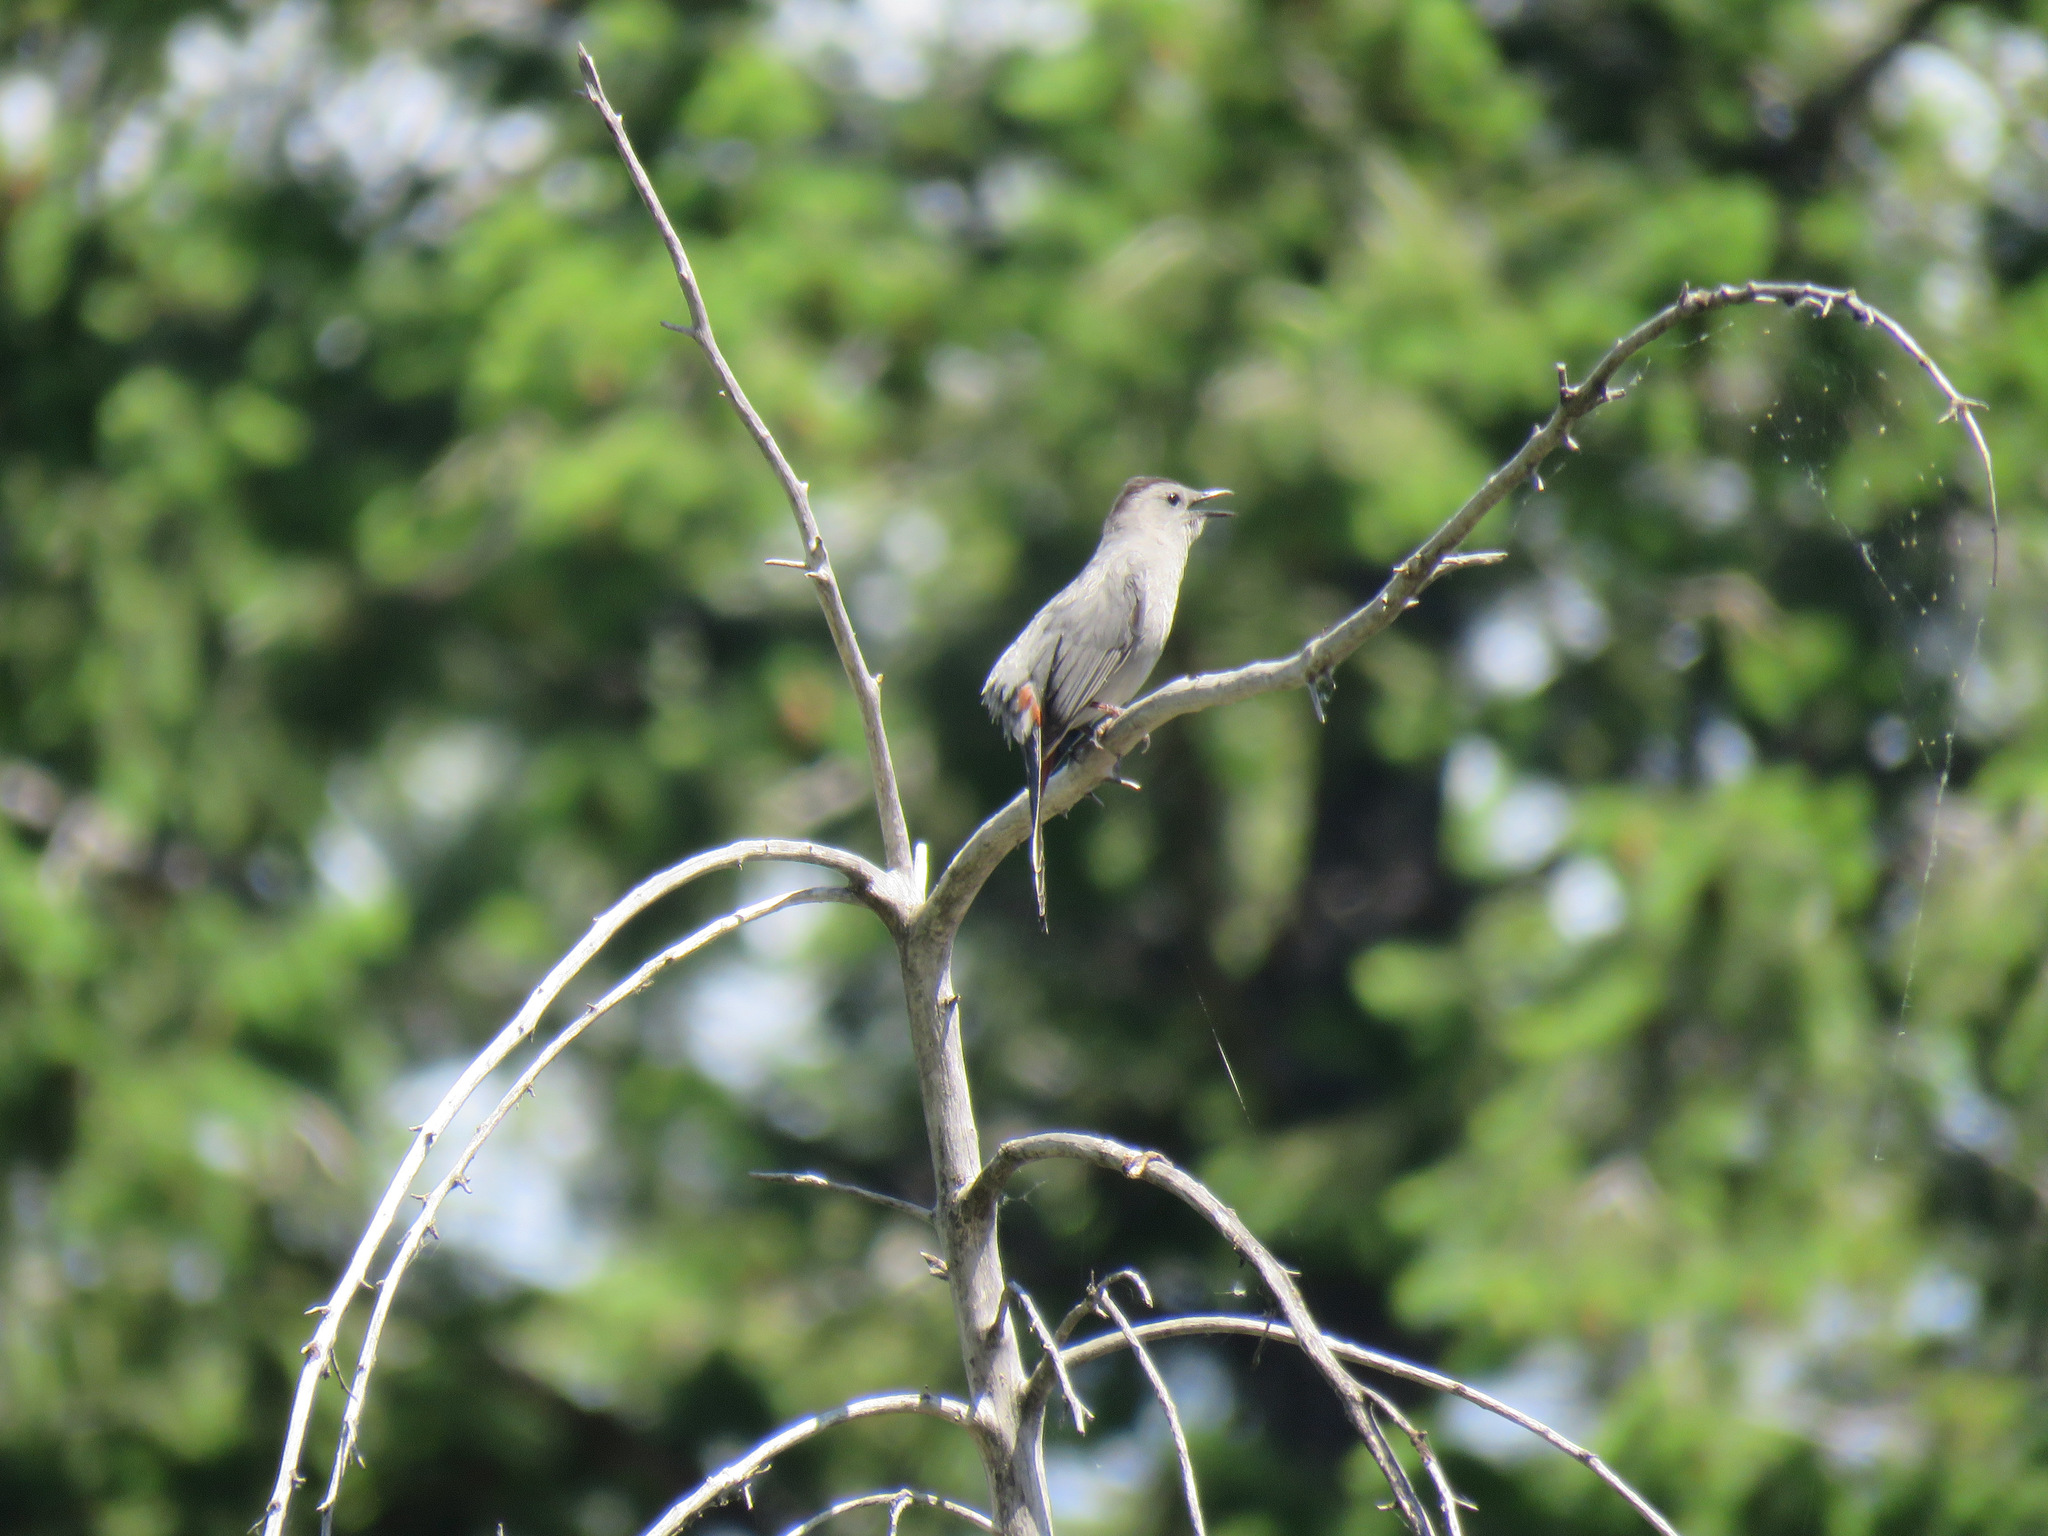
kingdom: Animalia
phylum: Chordata
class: Aves
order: Passeriformes
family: Mimidae
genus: Dumetella
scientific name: Dumetella carolinensis
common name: Gray catbird
